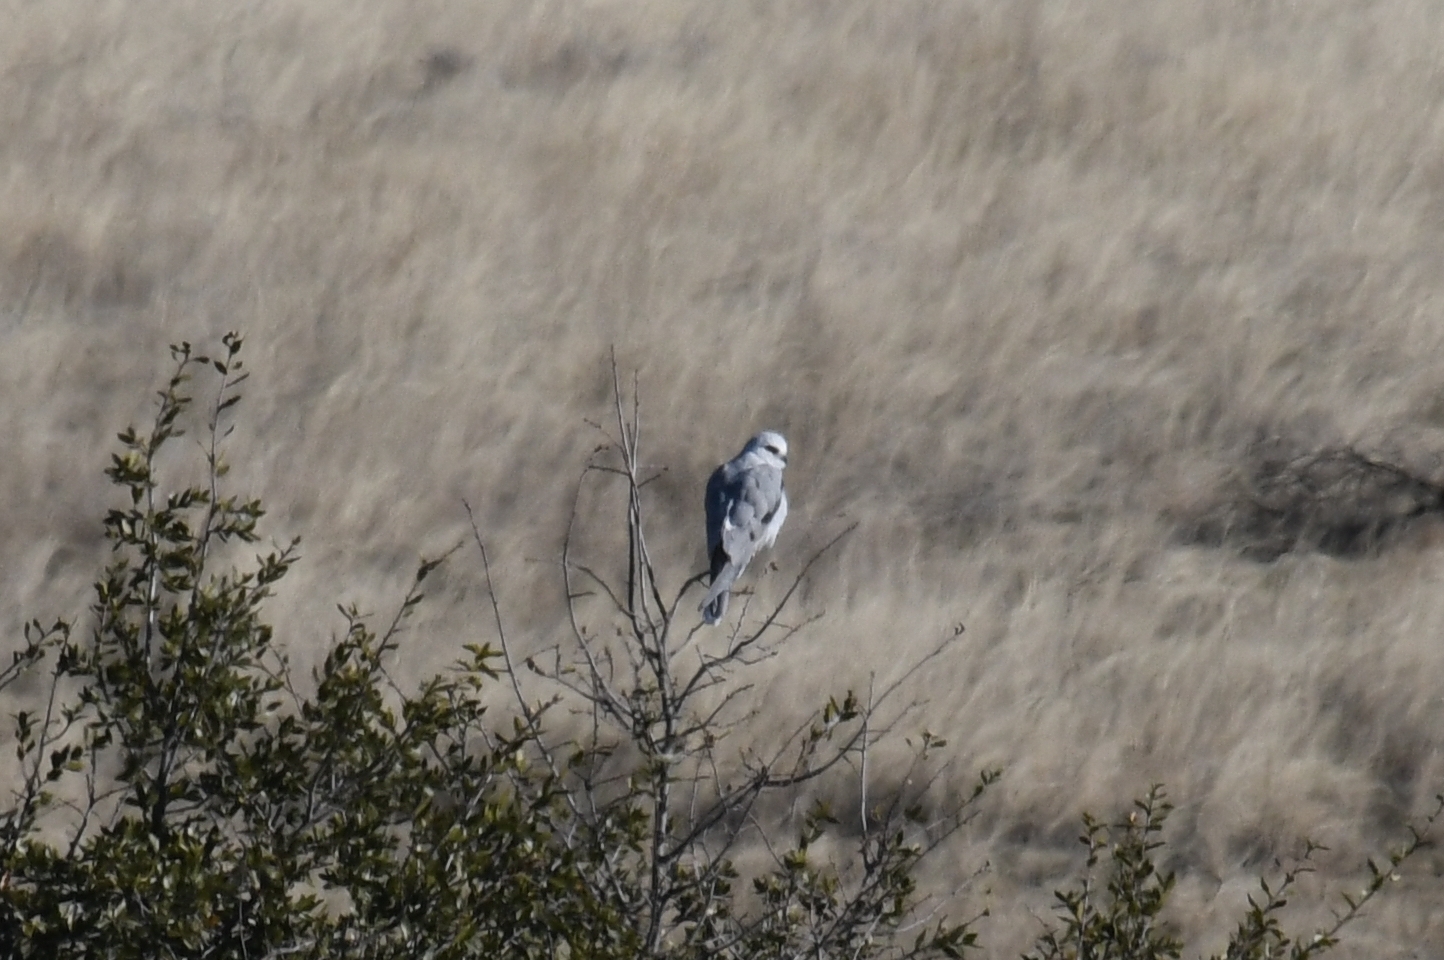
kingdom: Animalia
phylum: Chordata
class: Aves
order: Accipitriformes
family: Accipitridae
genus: Elanus
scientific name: Elanus leucurus
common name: White-tailed kite
